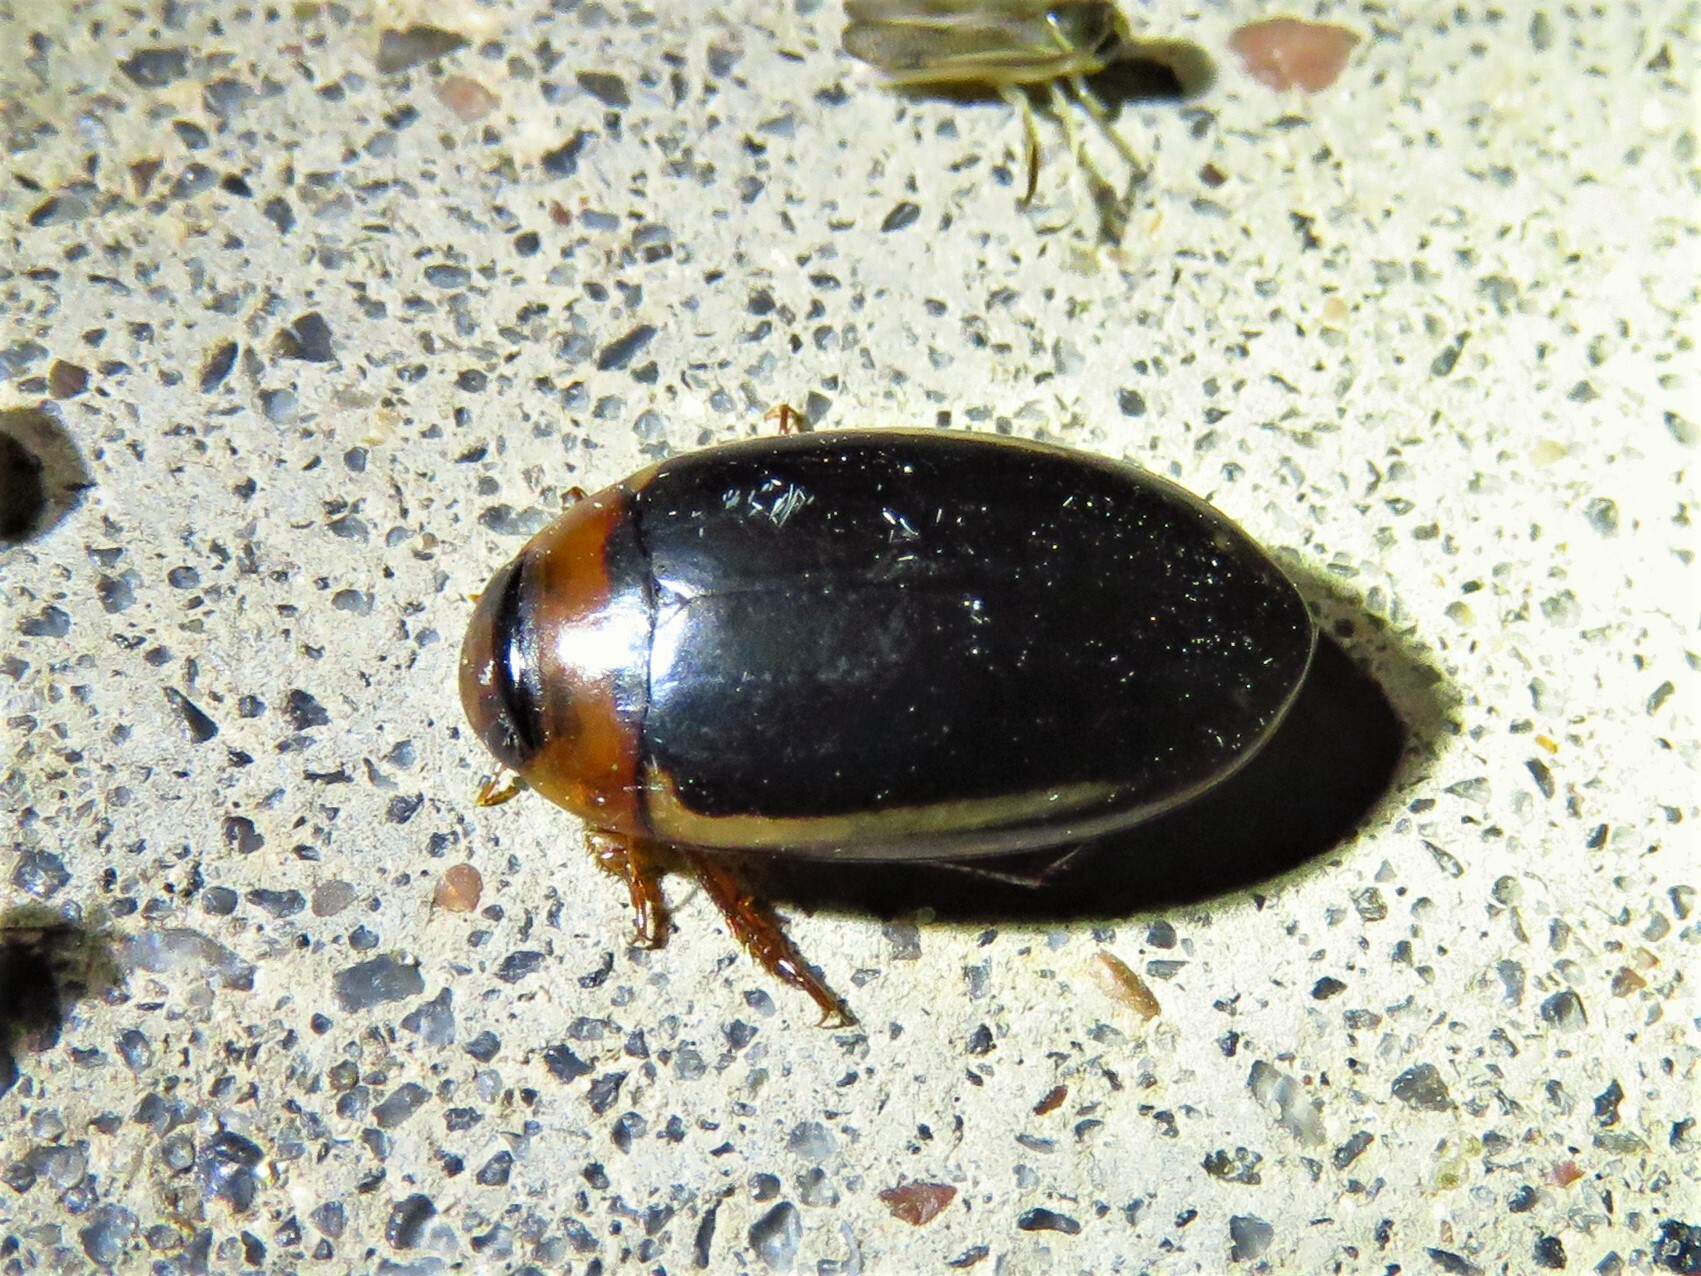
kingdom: Animalia
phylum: Arthropoda
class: Insecta
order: Coleoptera
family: Dytiscidae
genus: Hydaticus
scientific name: Hydaticus bimarginatus
